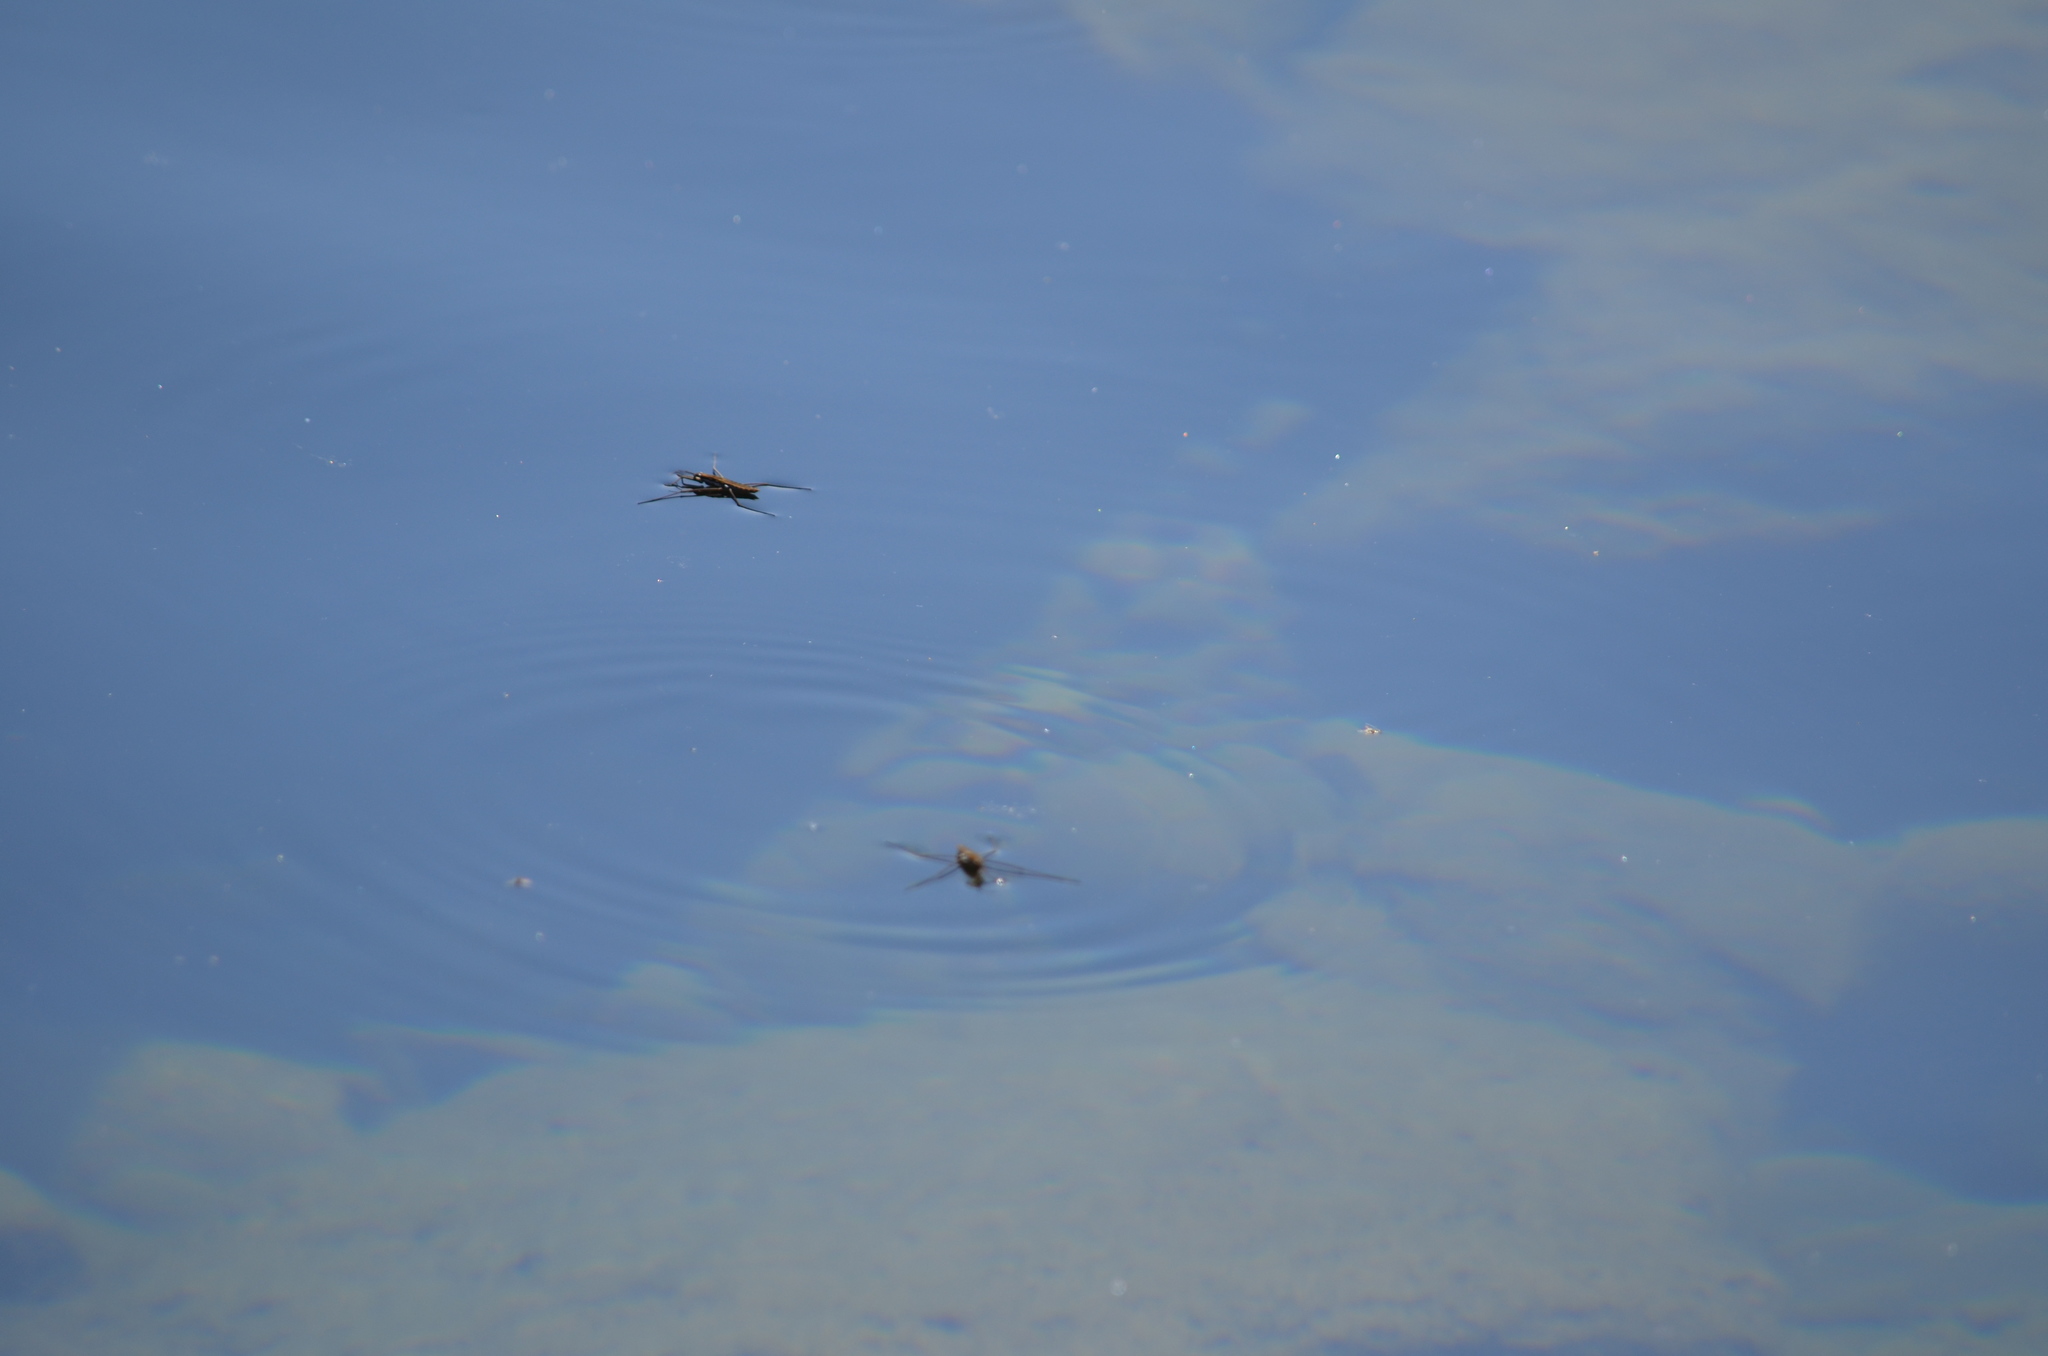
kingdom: Animalia
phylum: Arthropoda
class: Insecta
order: Hemiptera
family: Gerridae
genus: Aquarius
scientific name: Aquarius remigis
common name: Common water strider
